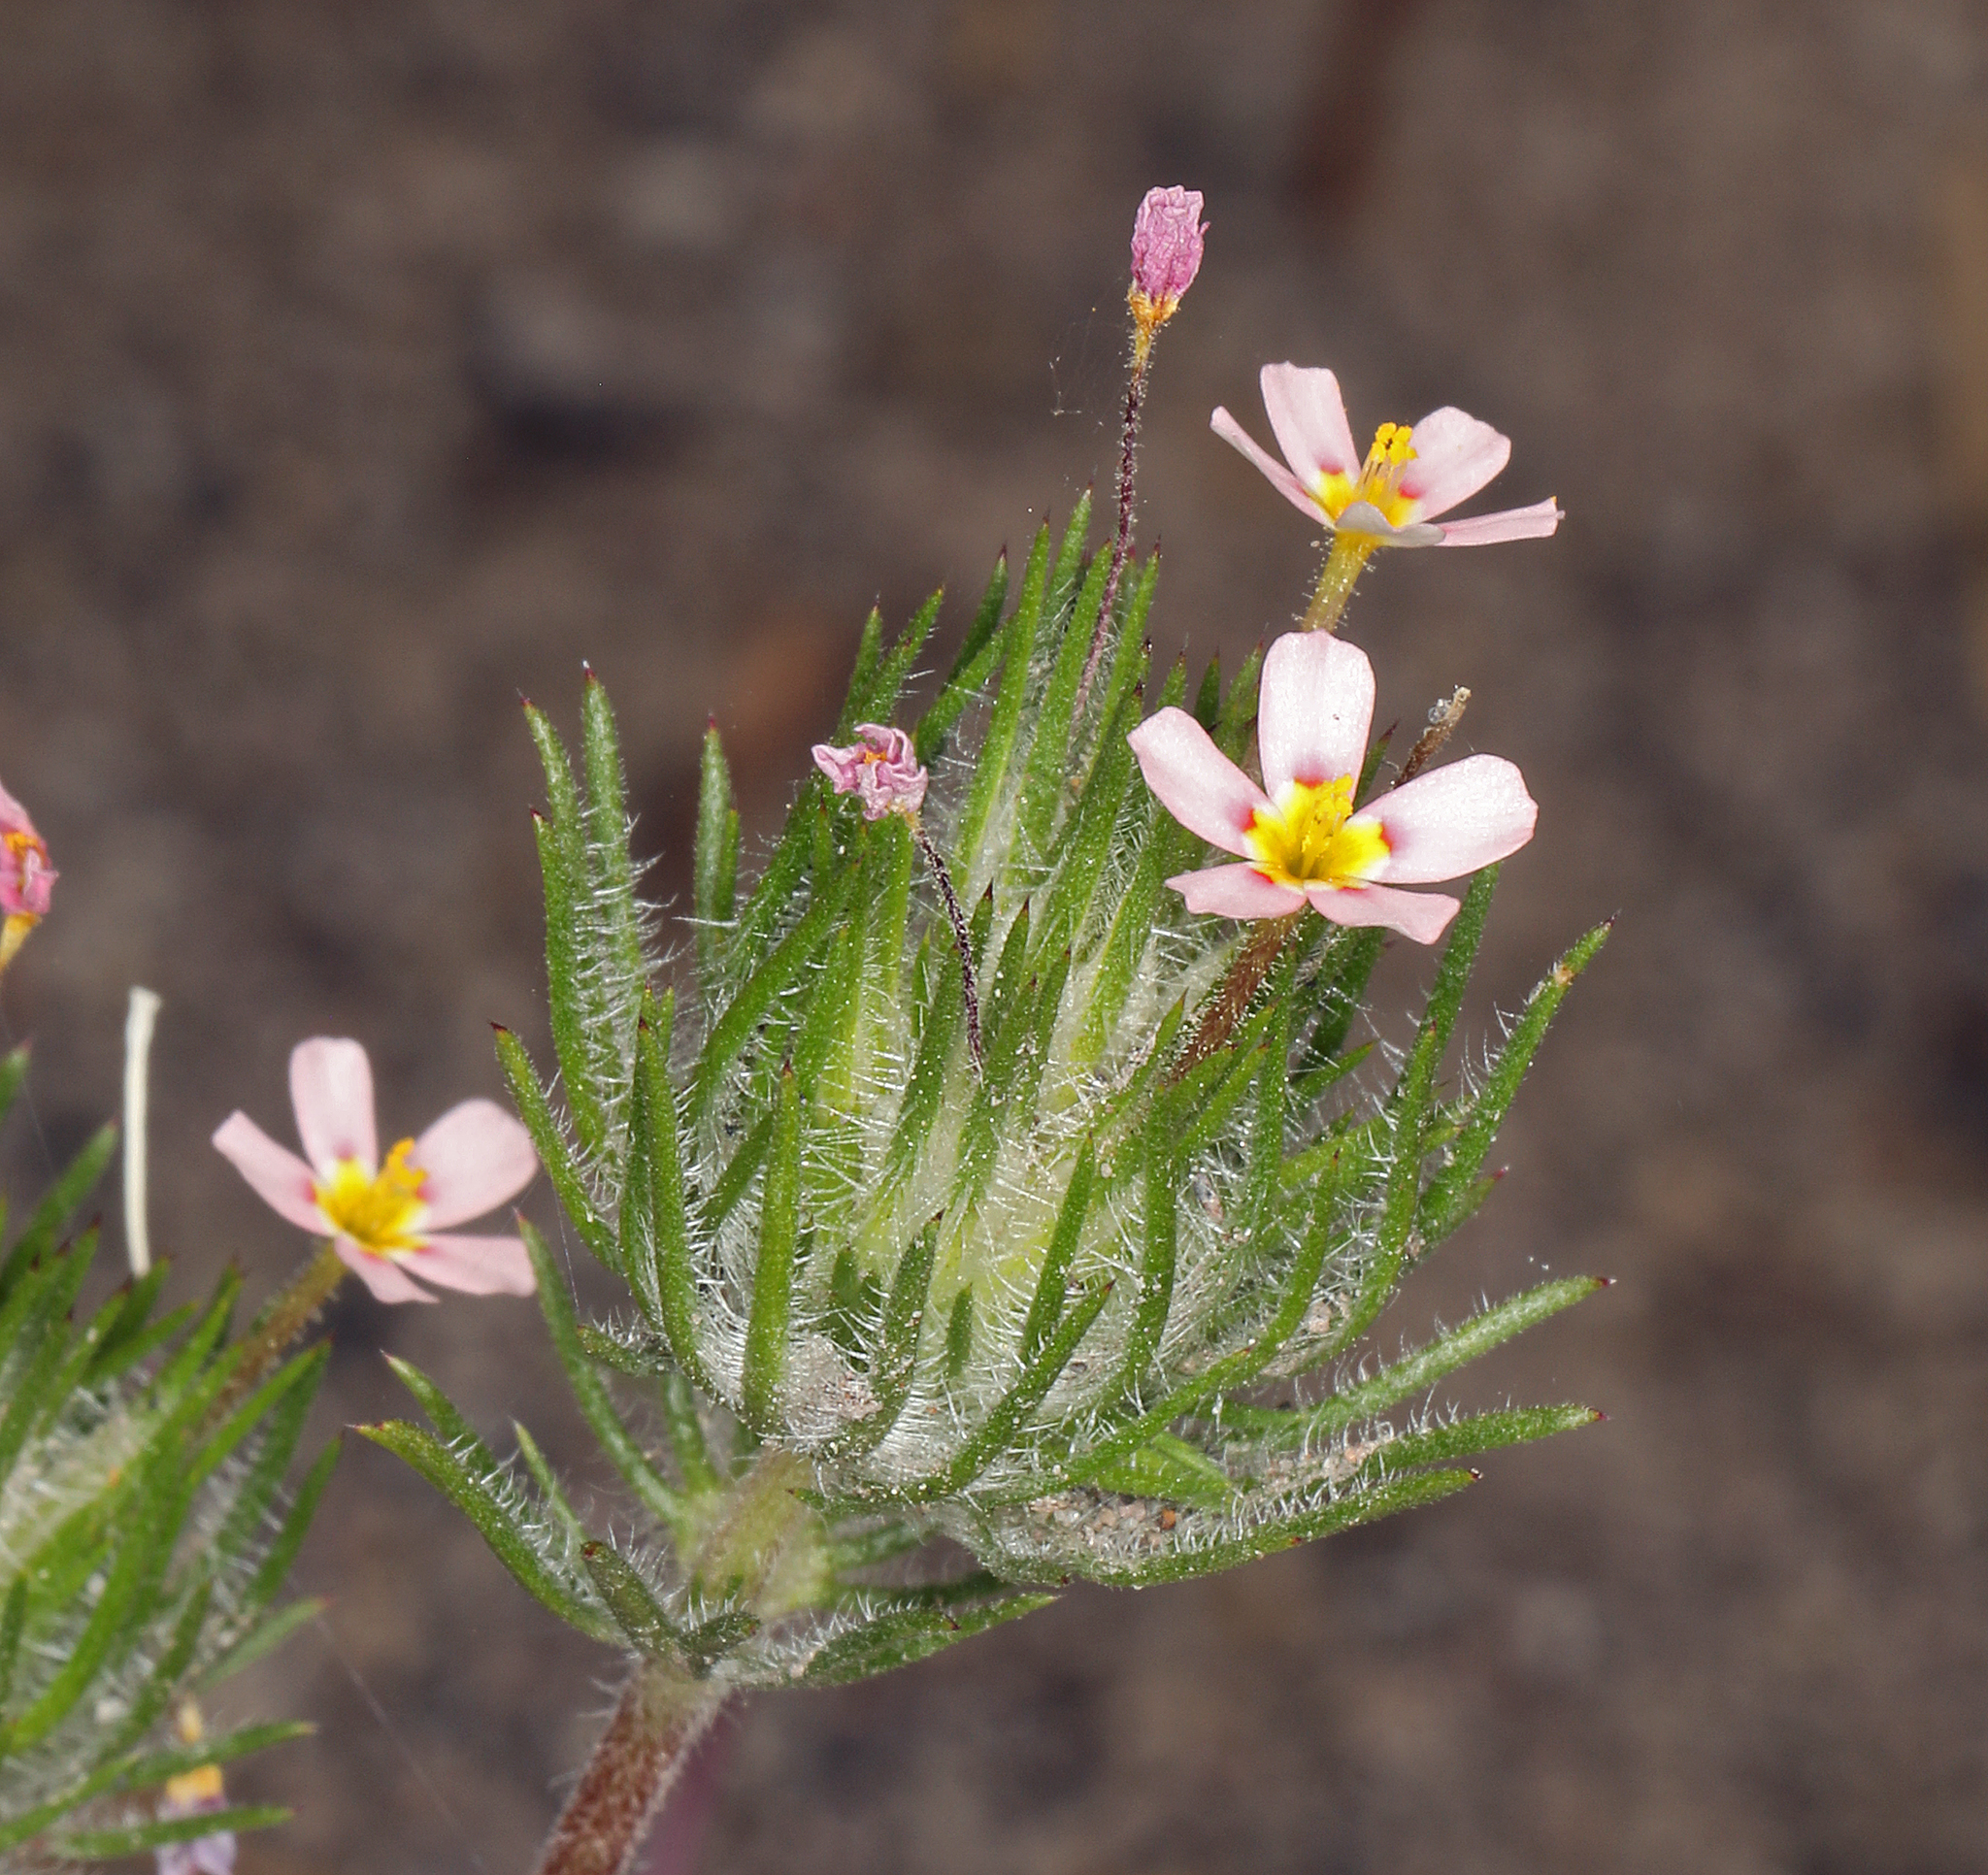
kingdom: Plantae
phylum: Tracheophyta
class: Magnoliopsida
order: Ericales
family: Polemoniaceae
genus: Leptosiphon
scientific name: Leptosiphon ciliatus
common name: Whiskerbrush
